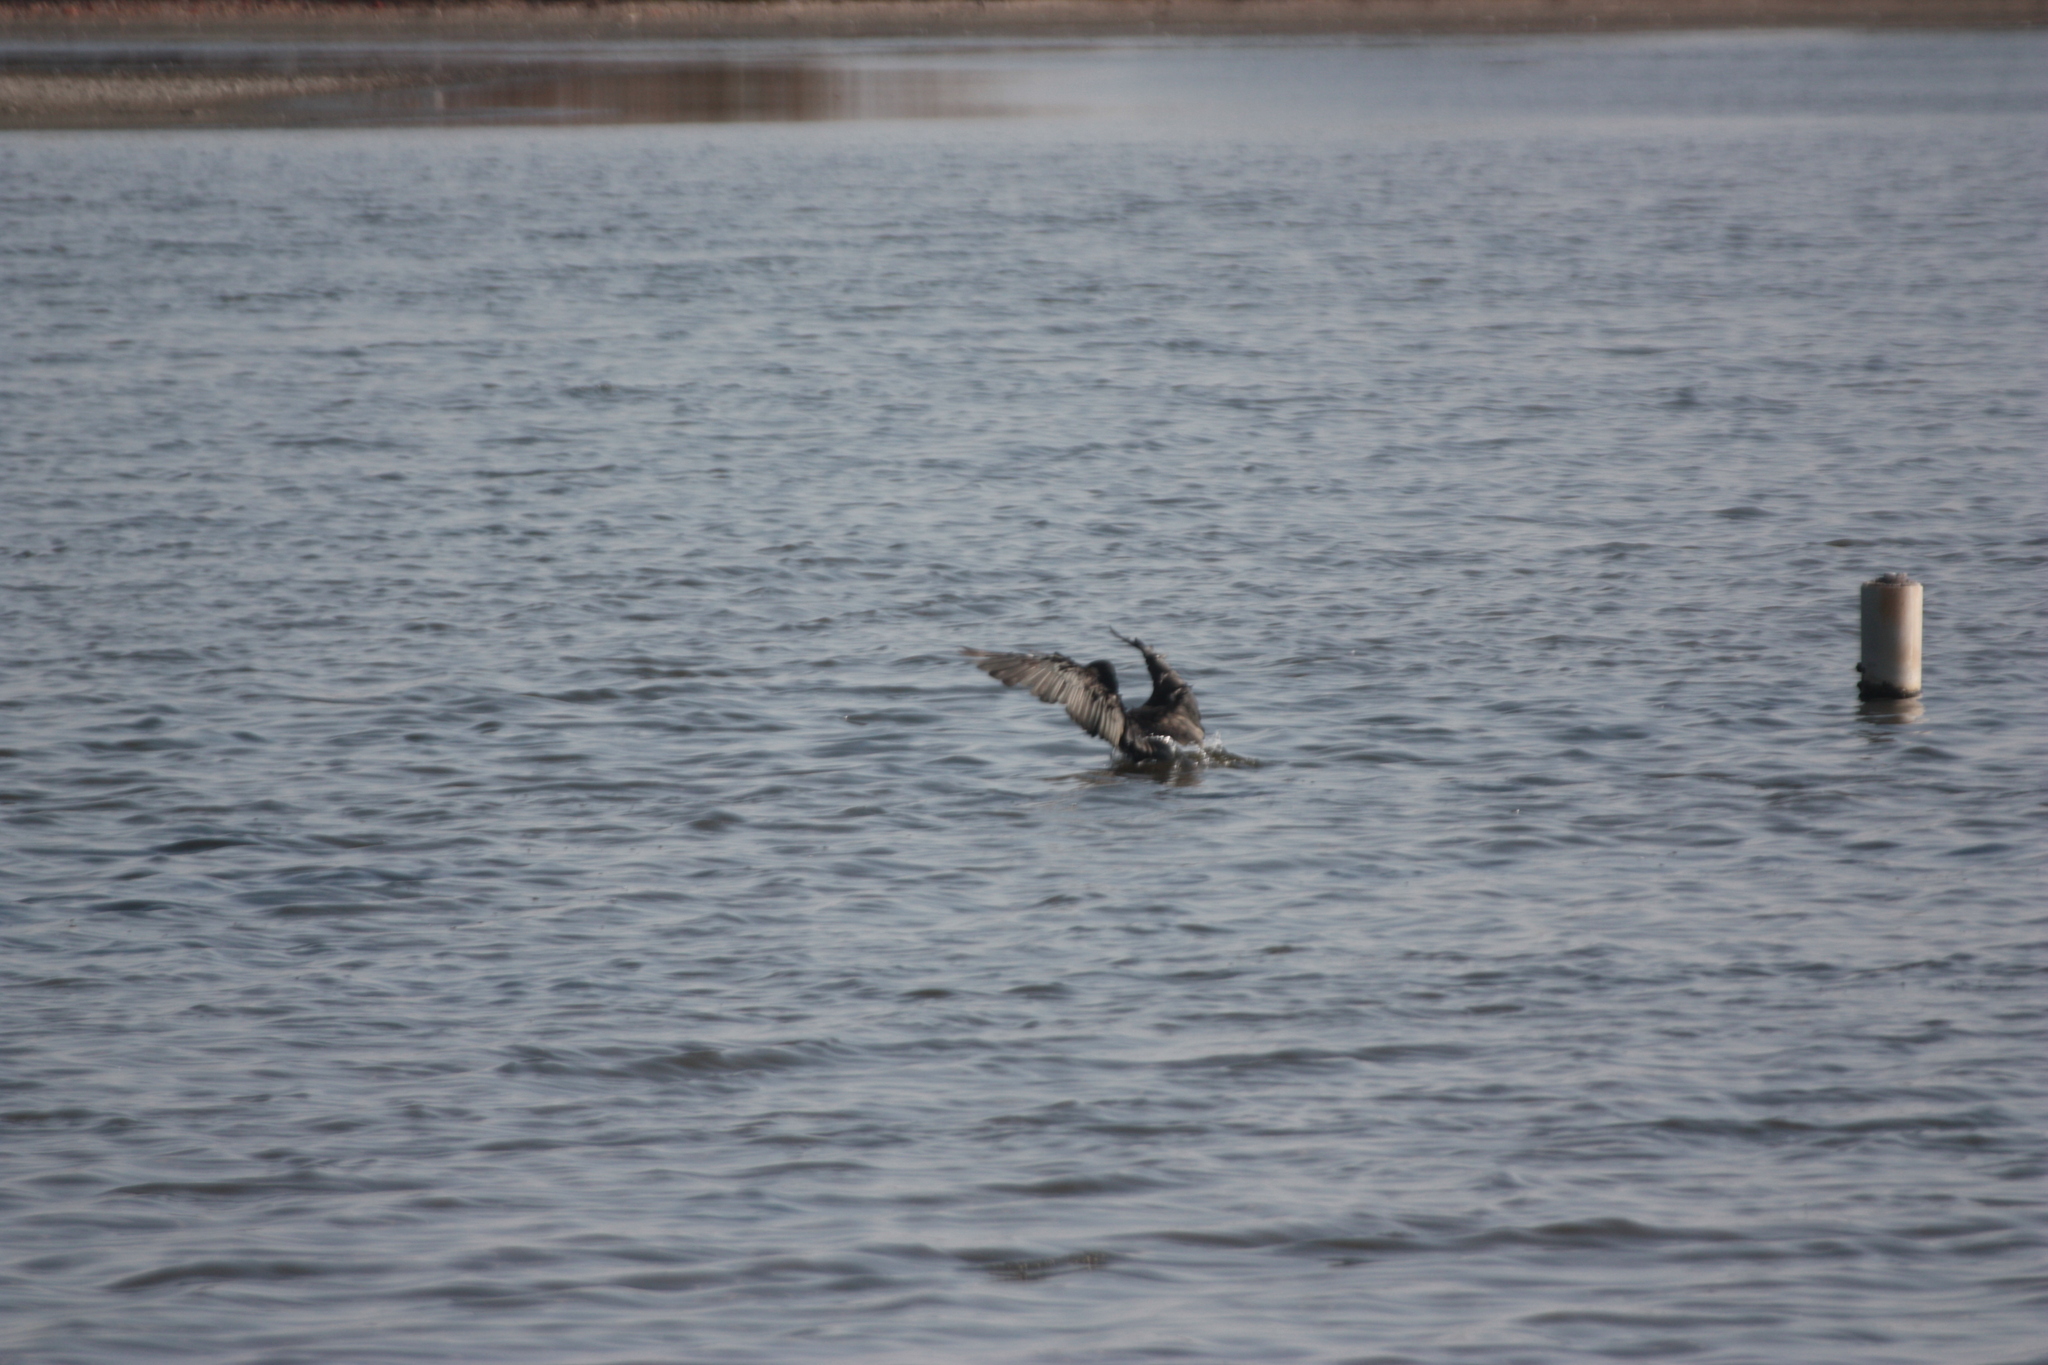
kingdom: Animalia
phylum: Chordata
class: Aves
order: Suliformes
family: Phalacrocoracidae
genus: Phalacrocorax
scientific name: Phalacrocorax carbo
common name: Great cormorant
